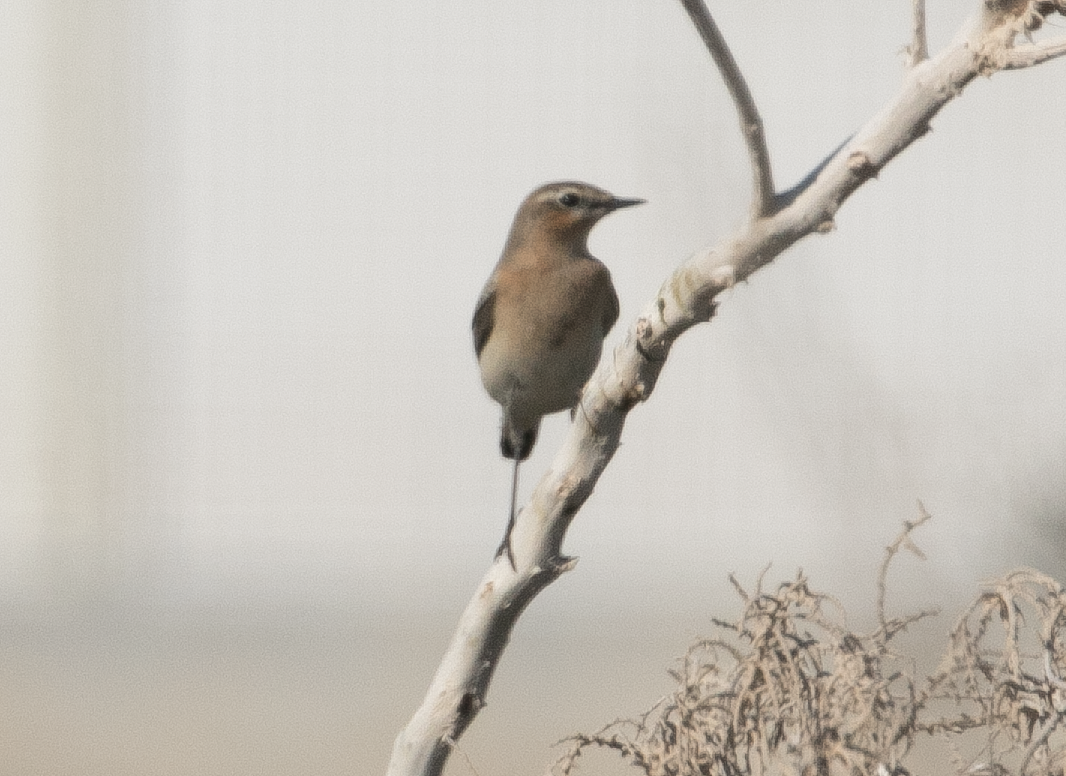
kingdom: Animalia
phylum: Chordata
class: Aves
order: Passeriformes
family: Muscicapidae
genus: Oenanthe
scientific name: Oenanthe oenanthe
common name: Northern wheatear
